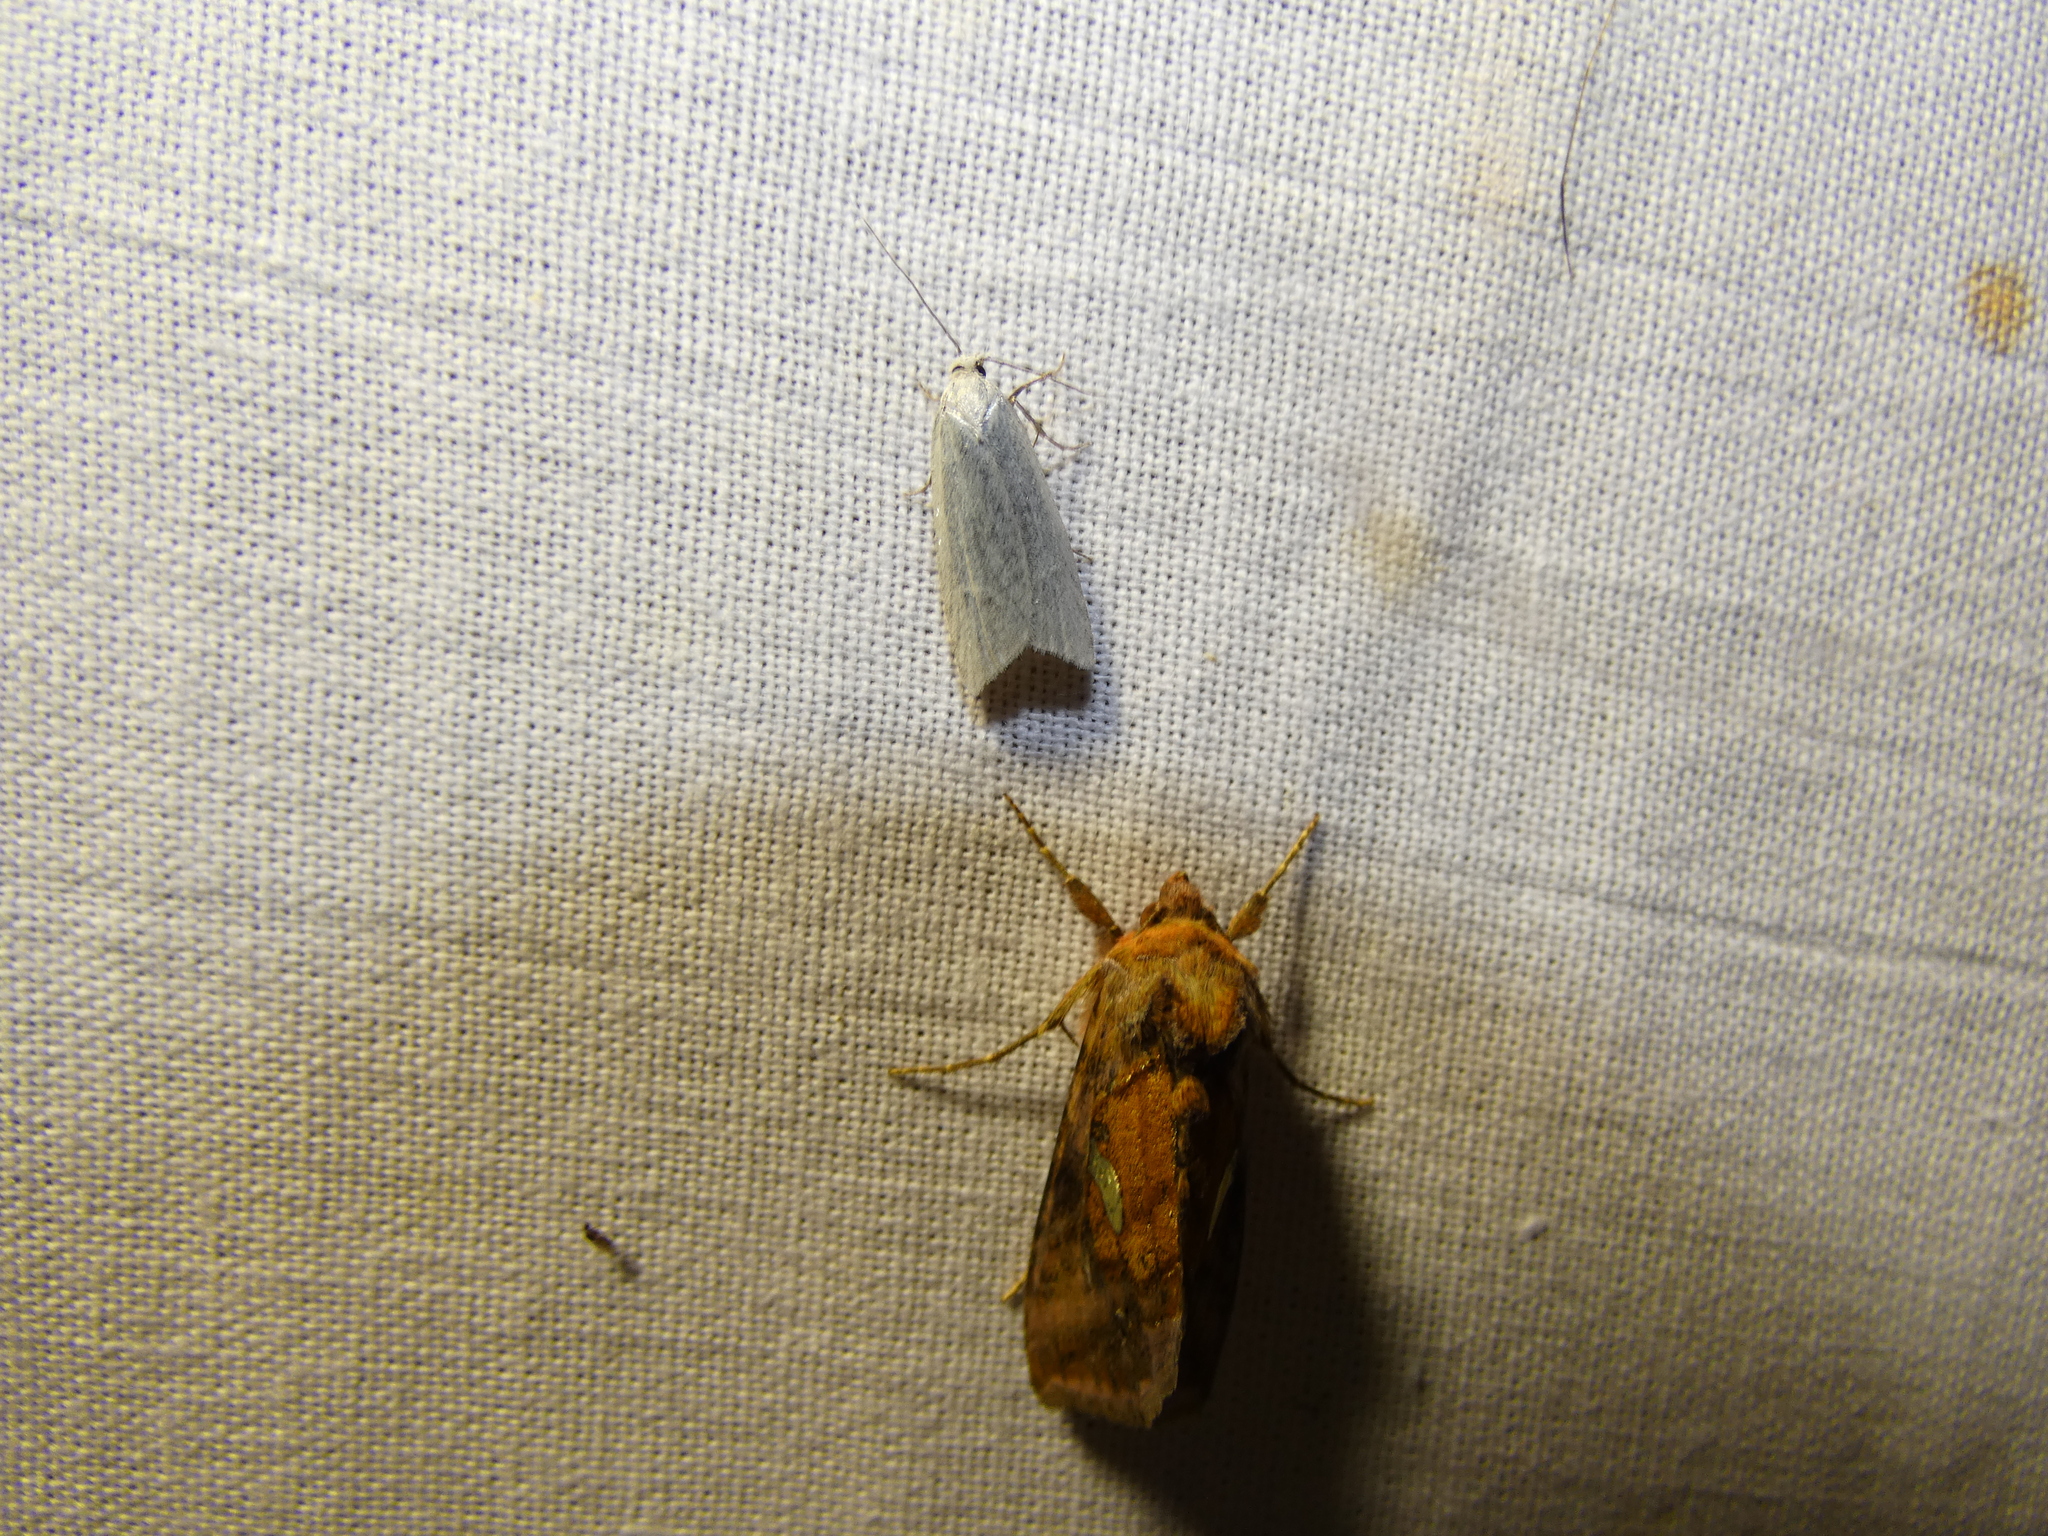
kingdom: Animalia
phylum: Arthropoda
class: Insecta
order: Lepidoptera
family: Noctuidae
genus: Autographa
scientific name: Autographa excelsa
